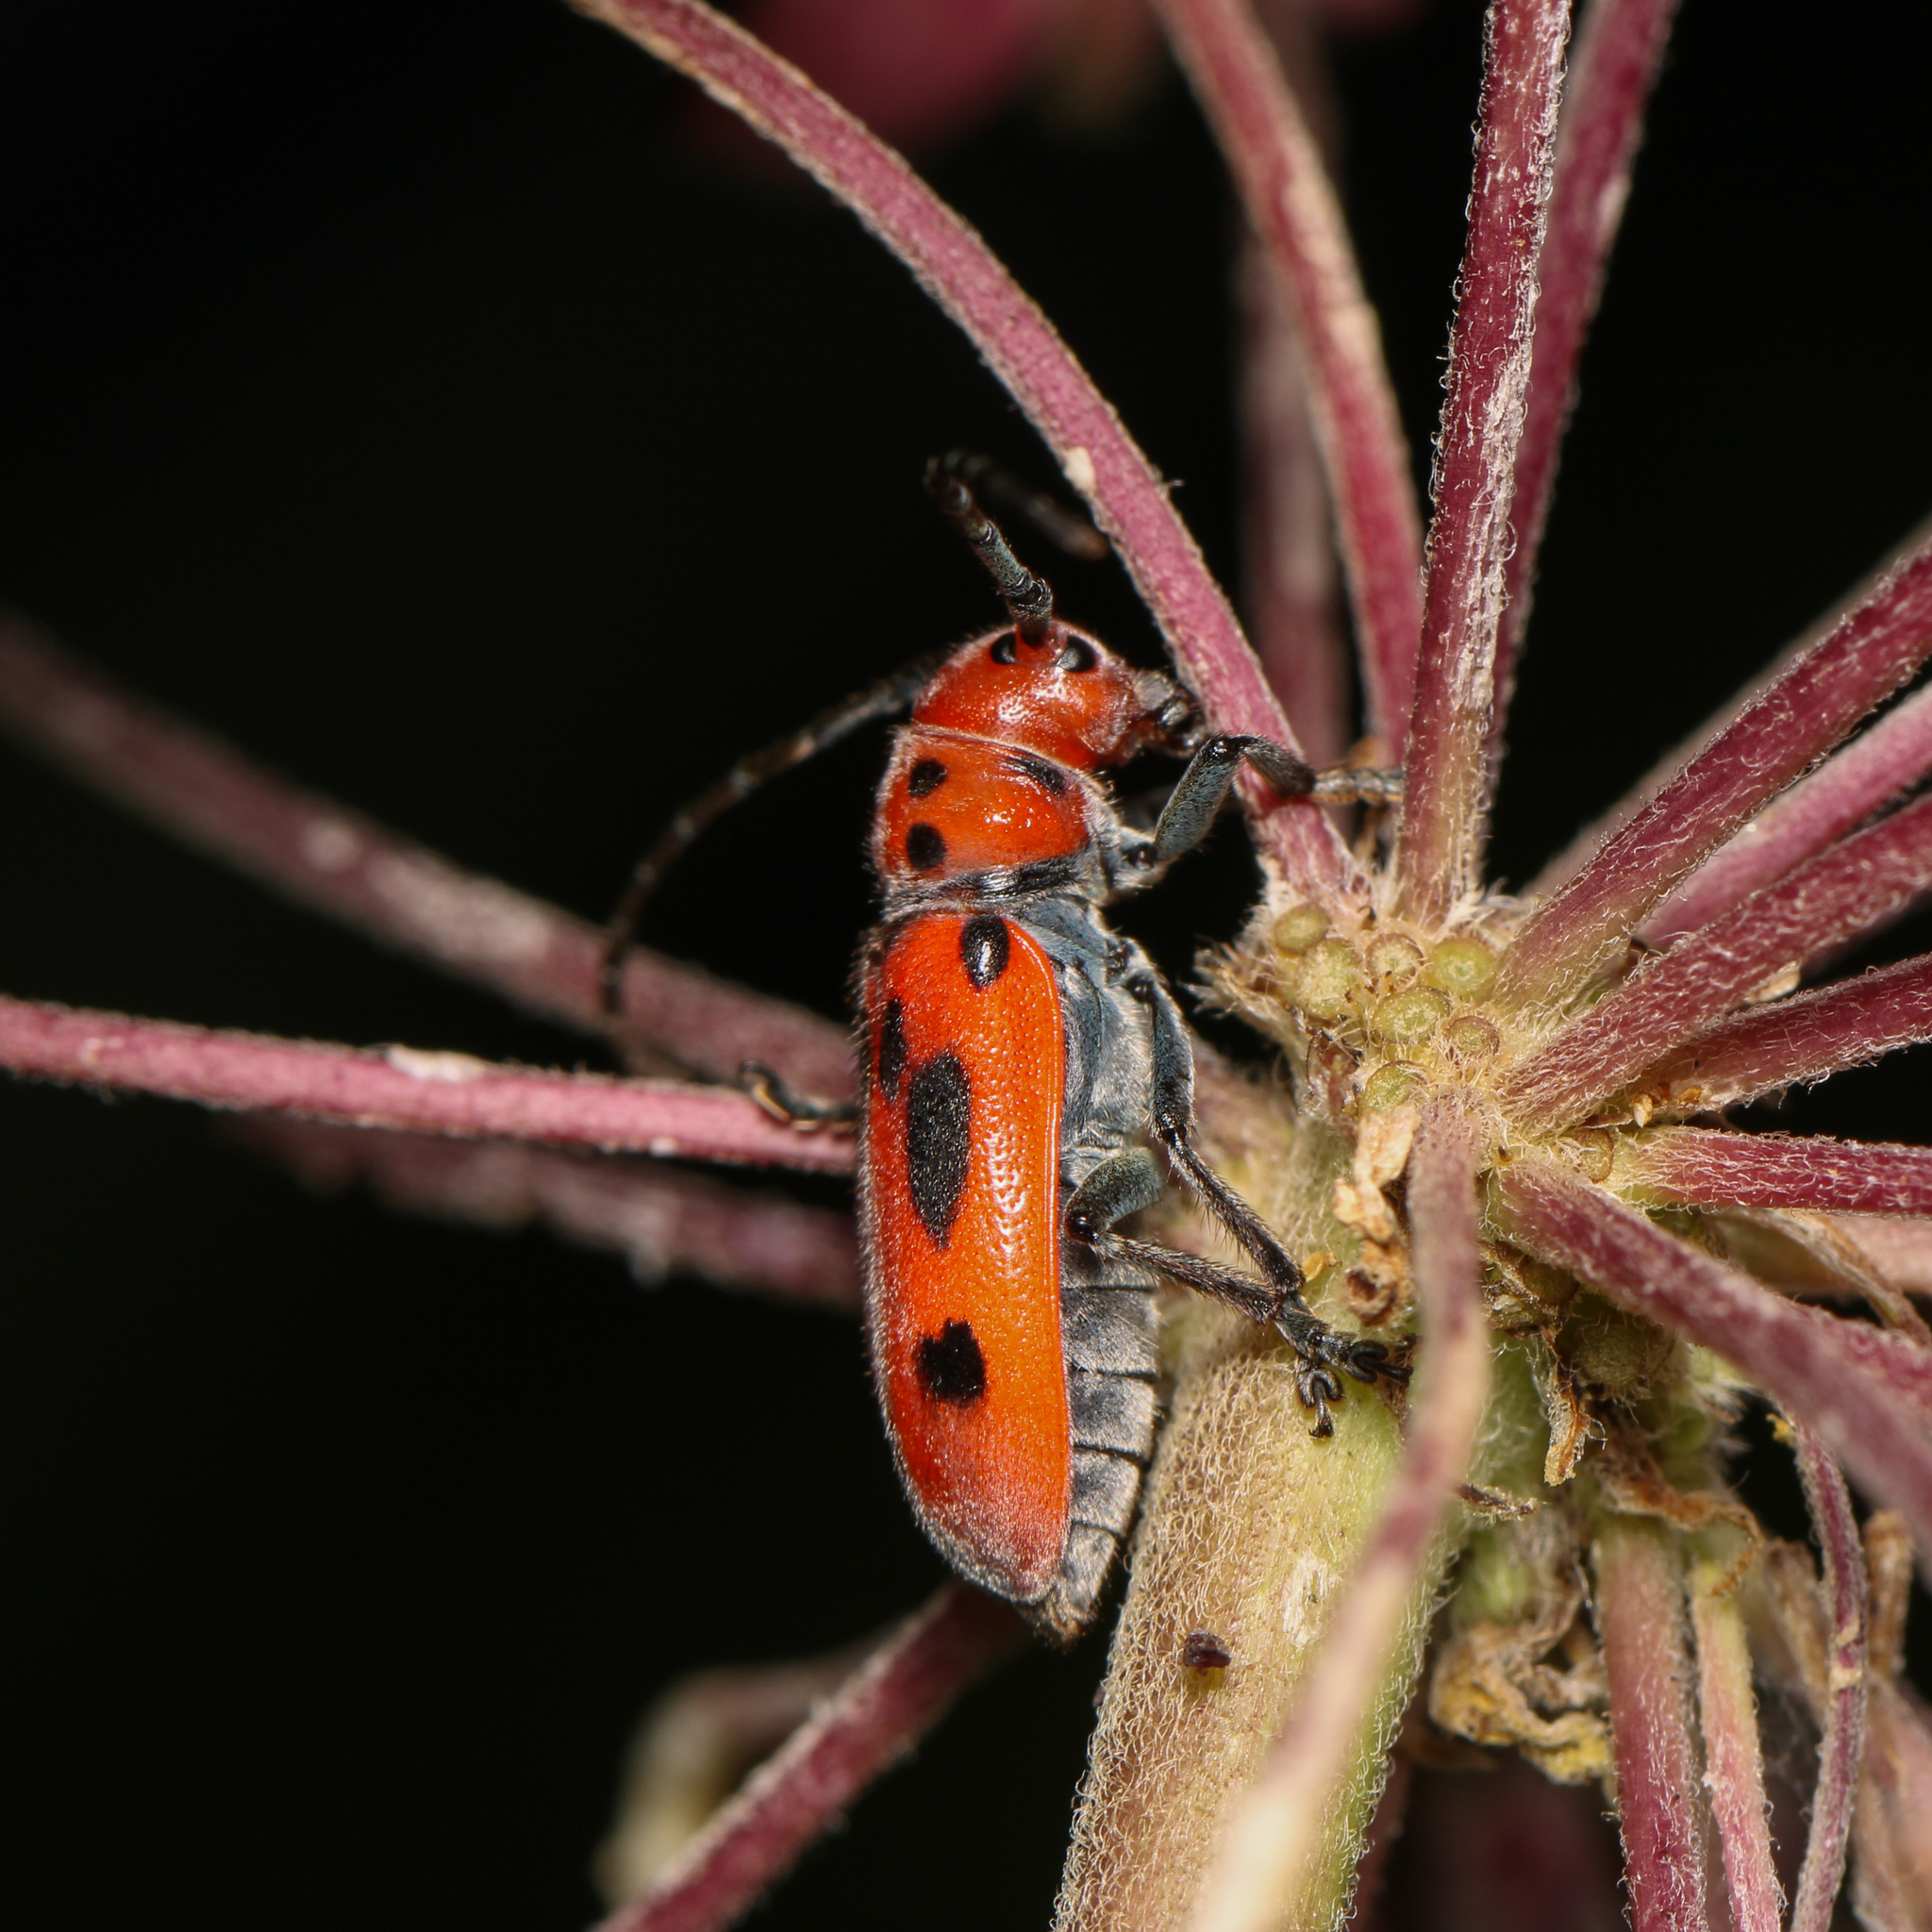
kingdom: Animalia
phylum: Arthropoda
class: Insecta
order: Coleoptera
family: Cerambycidae
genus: Tetraopes
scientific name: Tetraopes tetrophthalmus
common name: Red milkweed beetle
